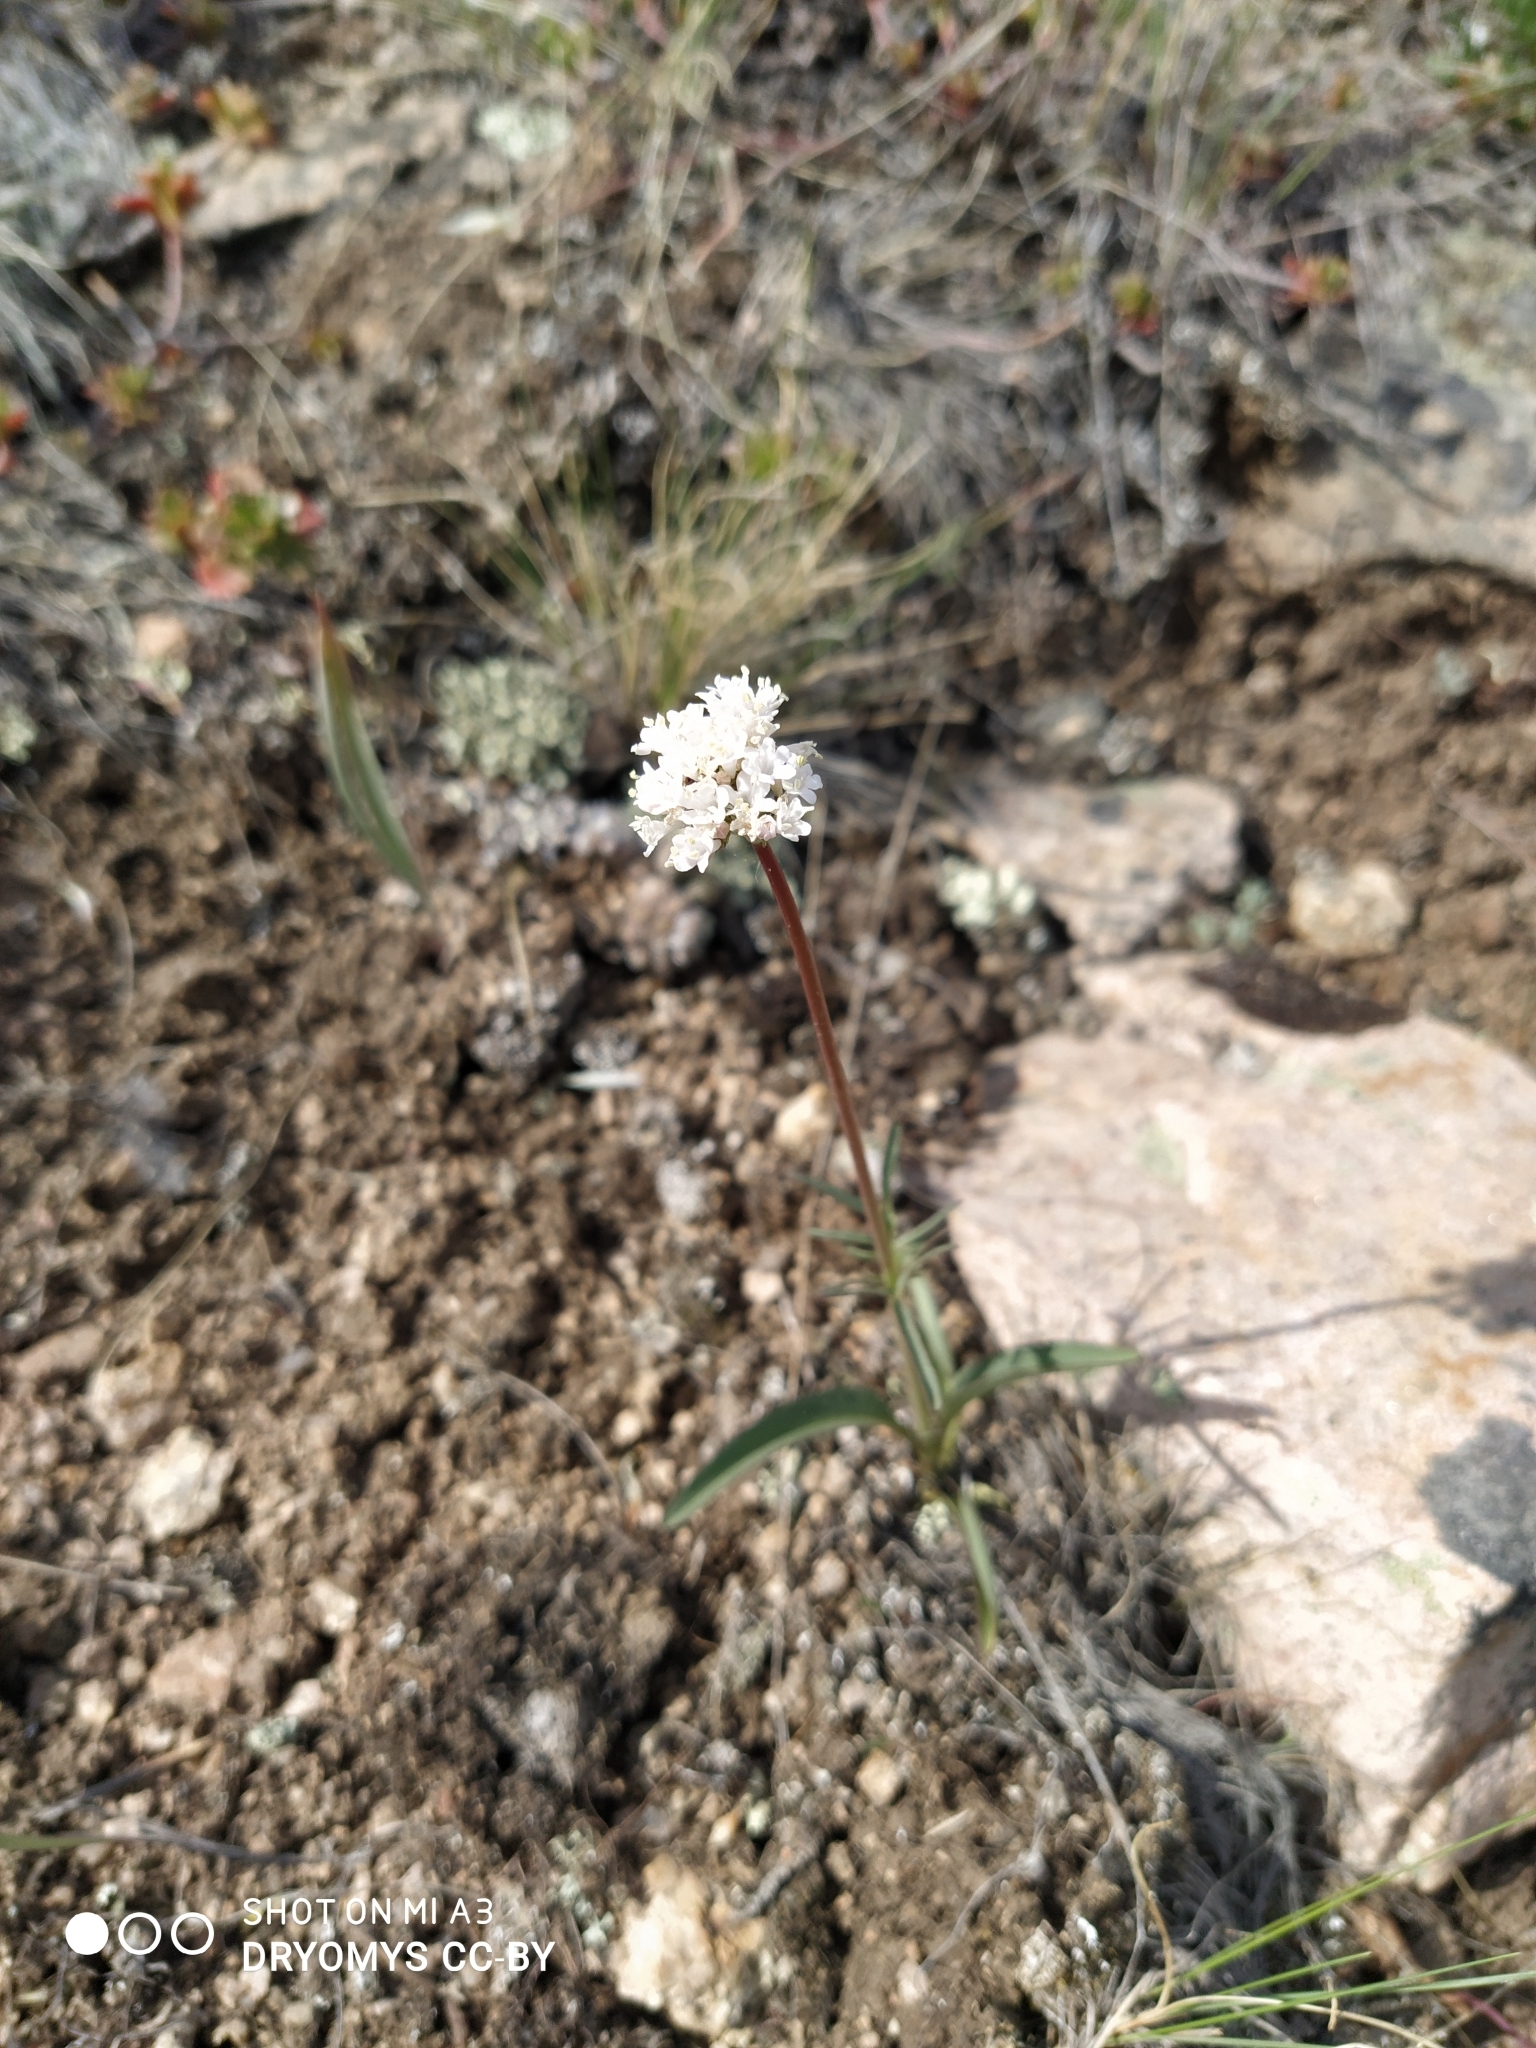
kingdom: Plantae
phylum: Tracheophyta
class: Magnoliopsida
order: Dipsacales
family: Caprifoliaceae
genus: Valeriana
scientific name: Valeriana tuberosa
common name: Tuberous valerian
